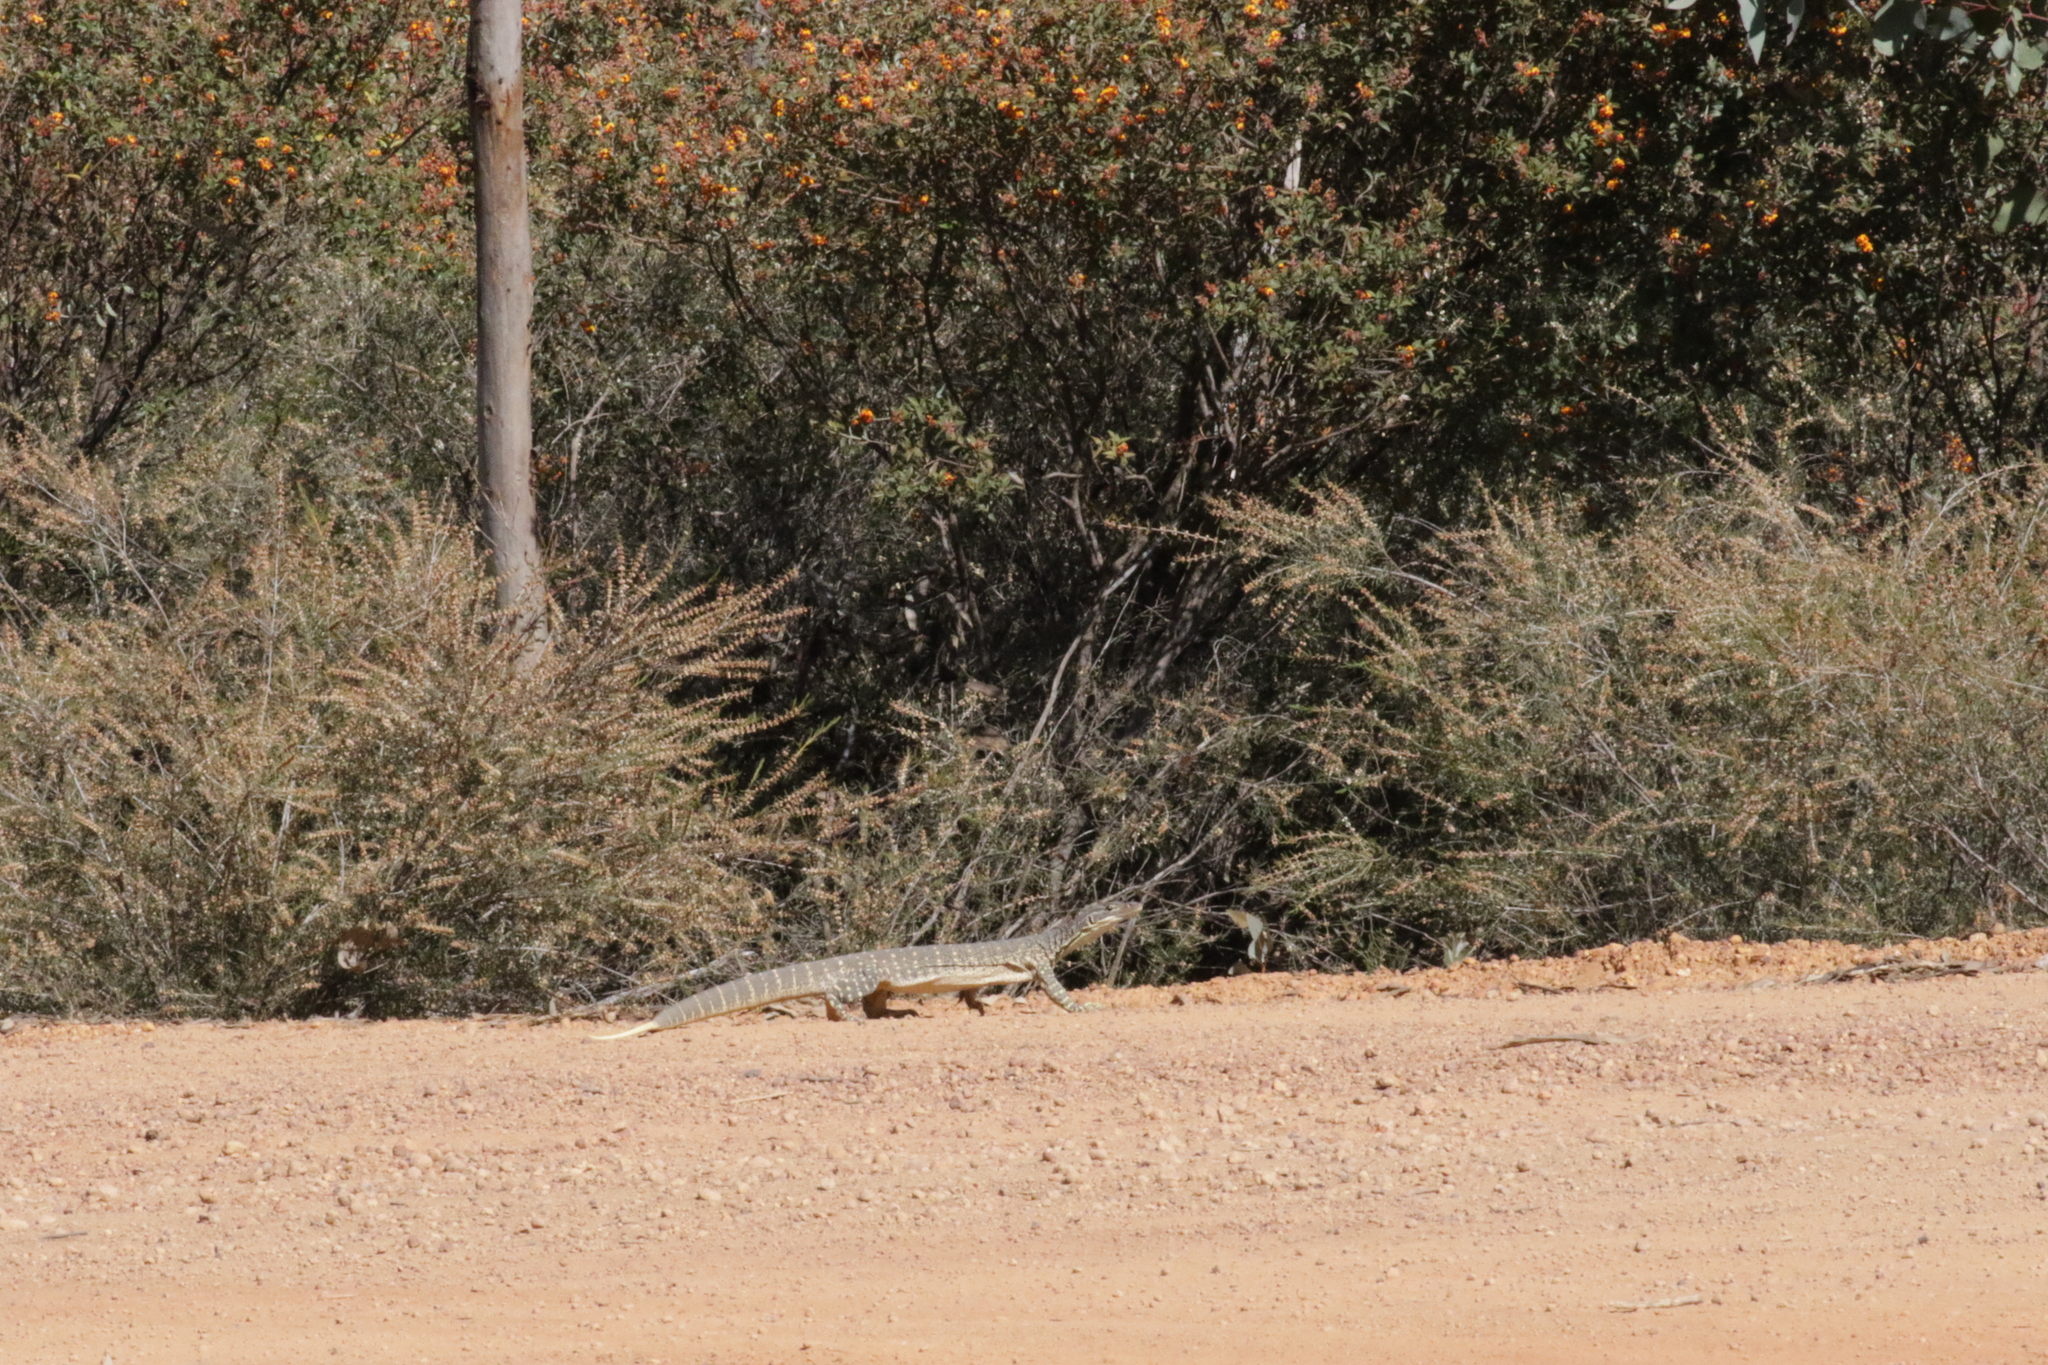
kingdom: Animalia
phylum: Chordata
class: Squamata
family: Varanidae
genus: Varanus
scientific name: Varanus gouldii
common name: Gould's goanna
